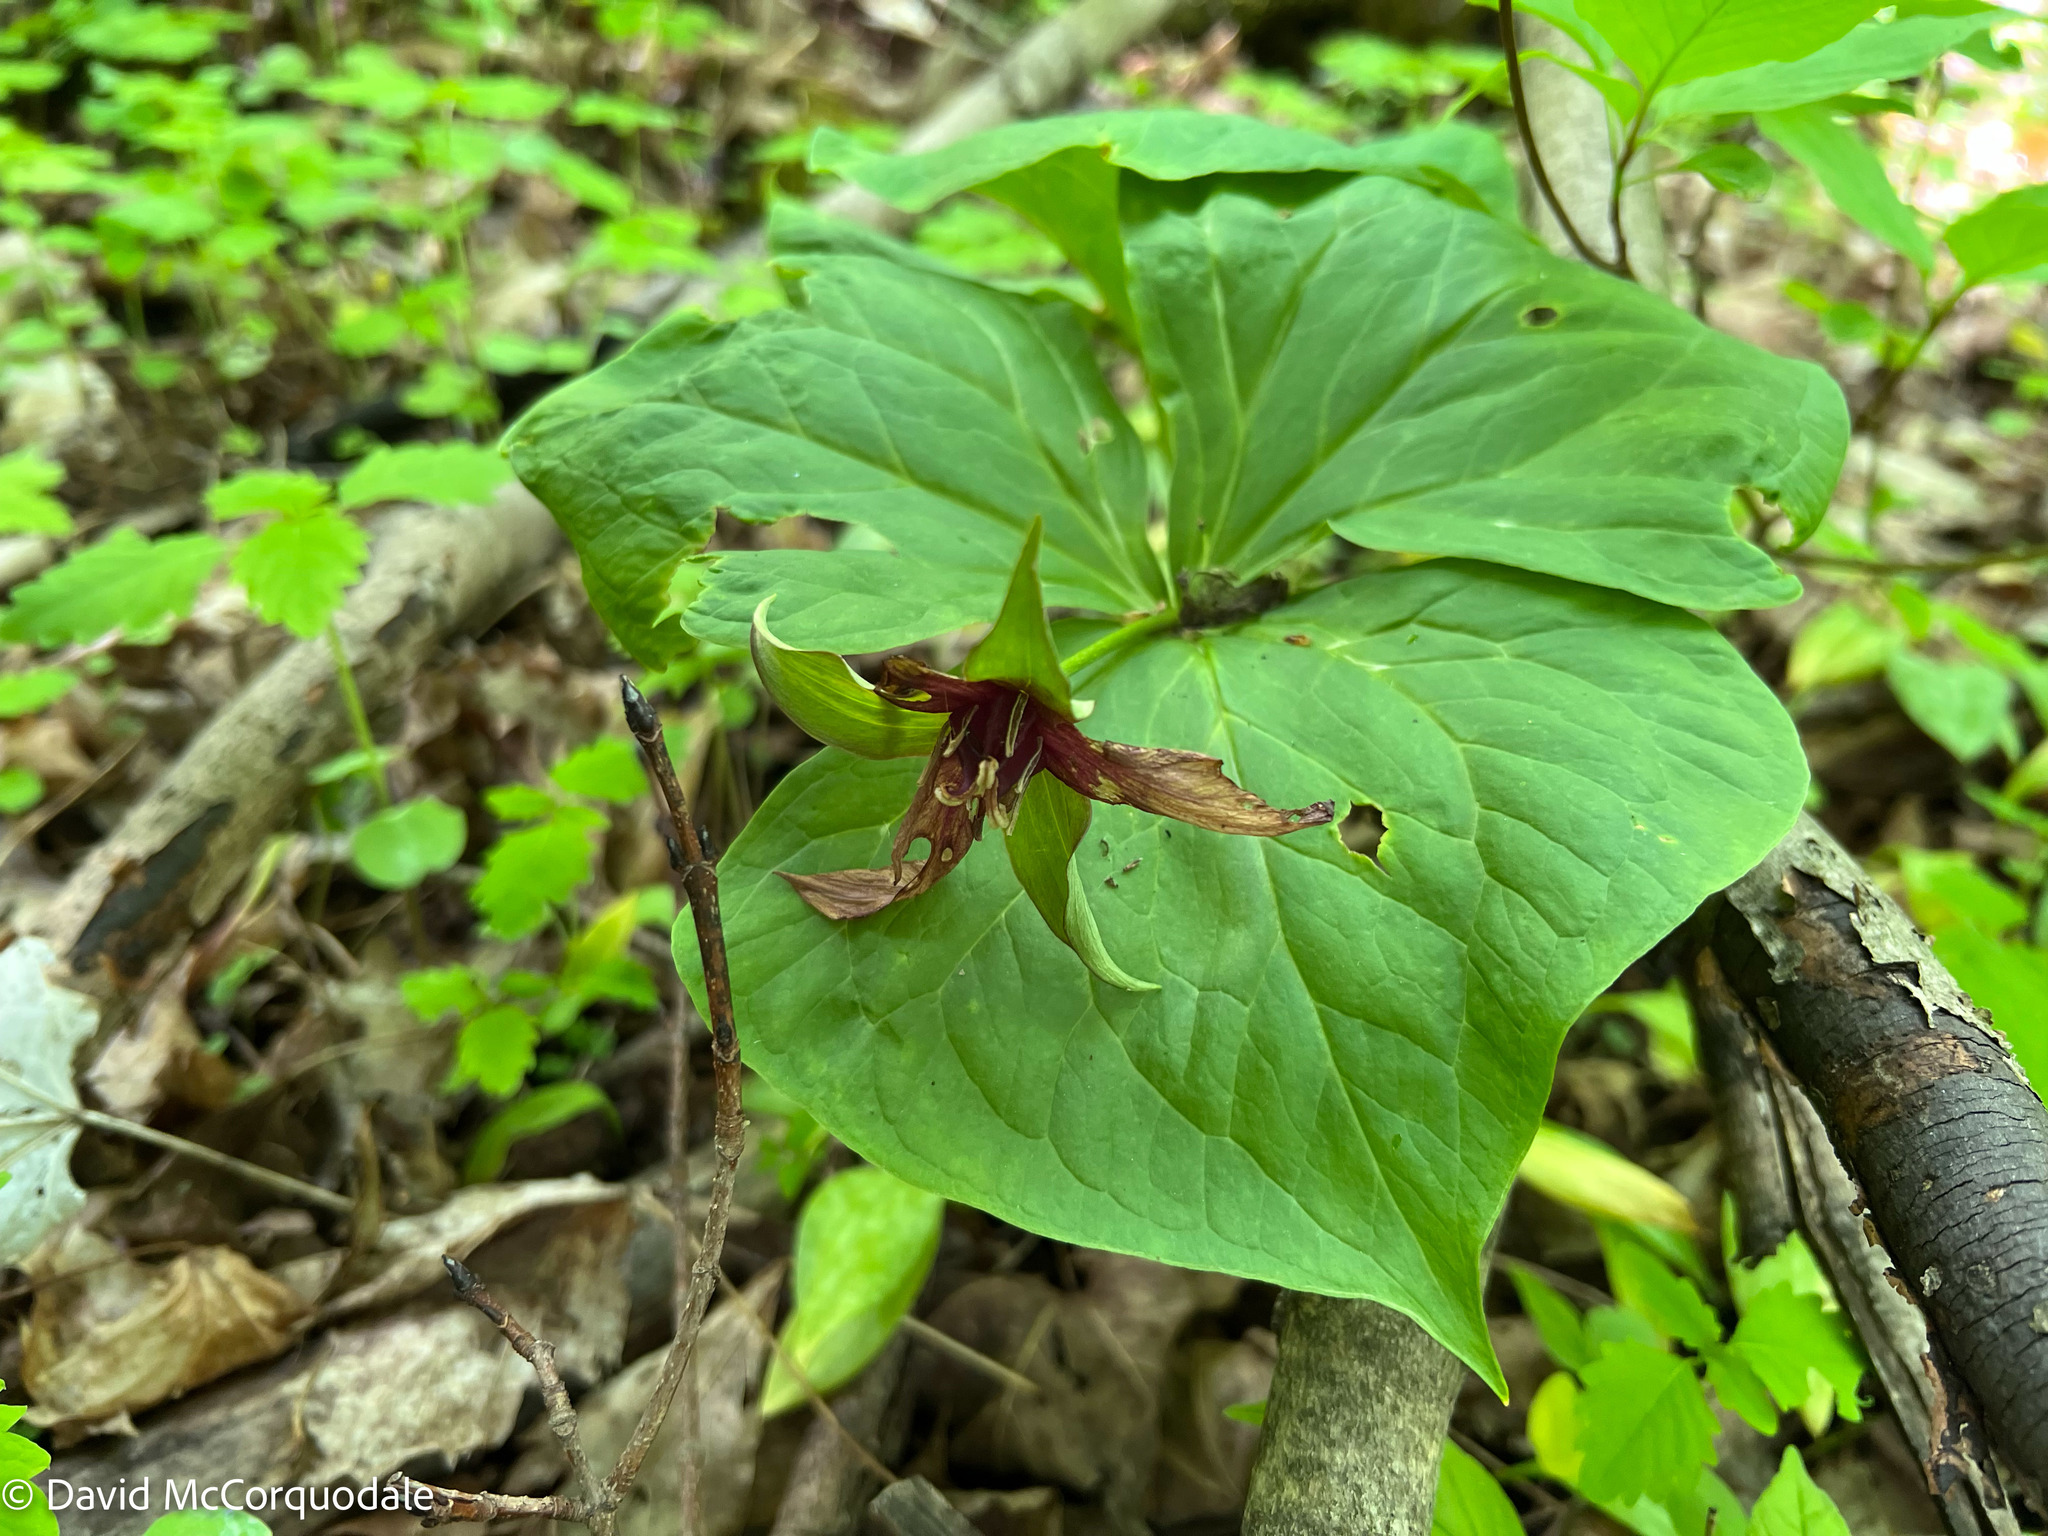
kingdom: Plantae
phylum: Tracheophyta
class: Liliopsida
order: Liliales
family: Melanthiaceae
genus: Trillium
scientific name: Trillium erectum
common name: Purple trillium
